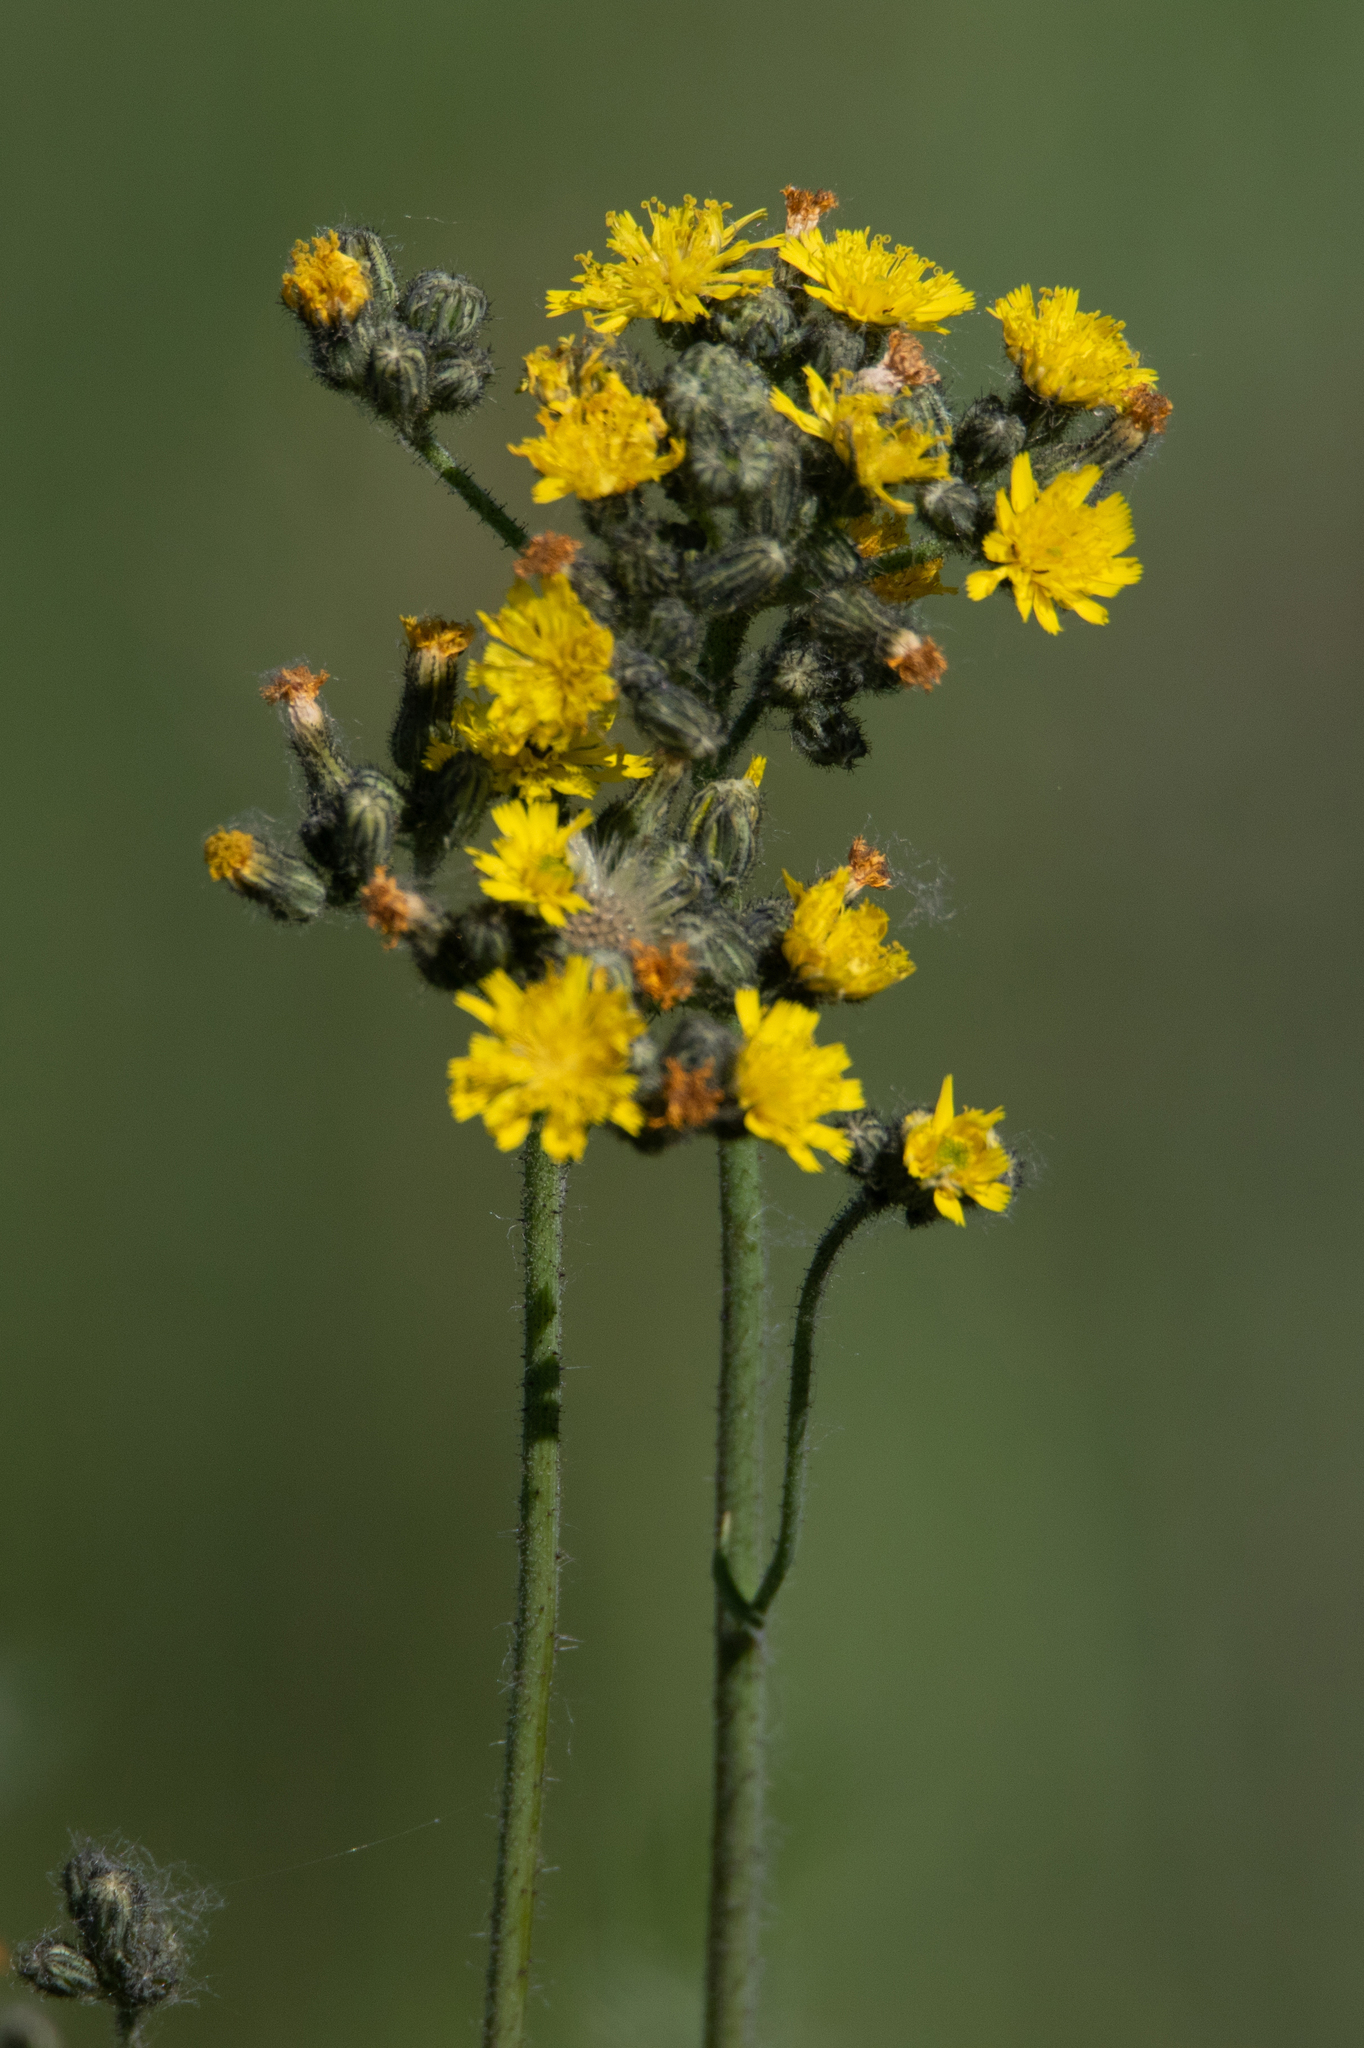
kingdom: Plantae
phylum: Tracheophyta
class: Magnoliopsida
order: Asterales
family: Asteraceae
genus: Pilosella
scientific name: Pilosella
